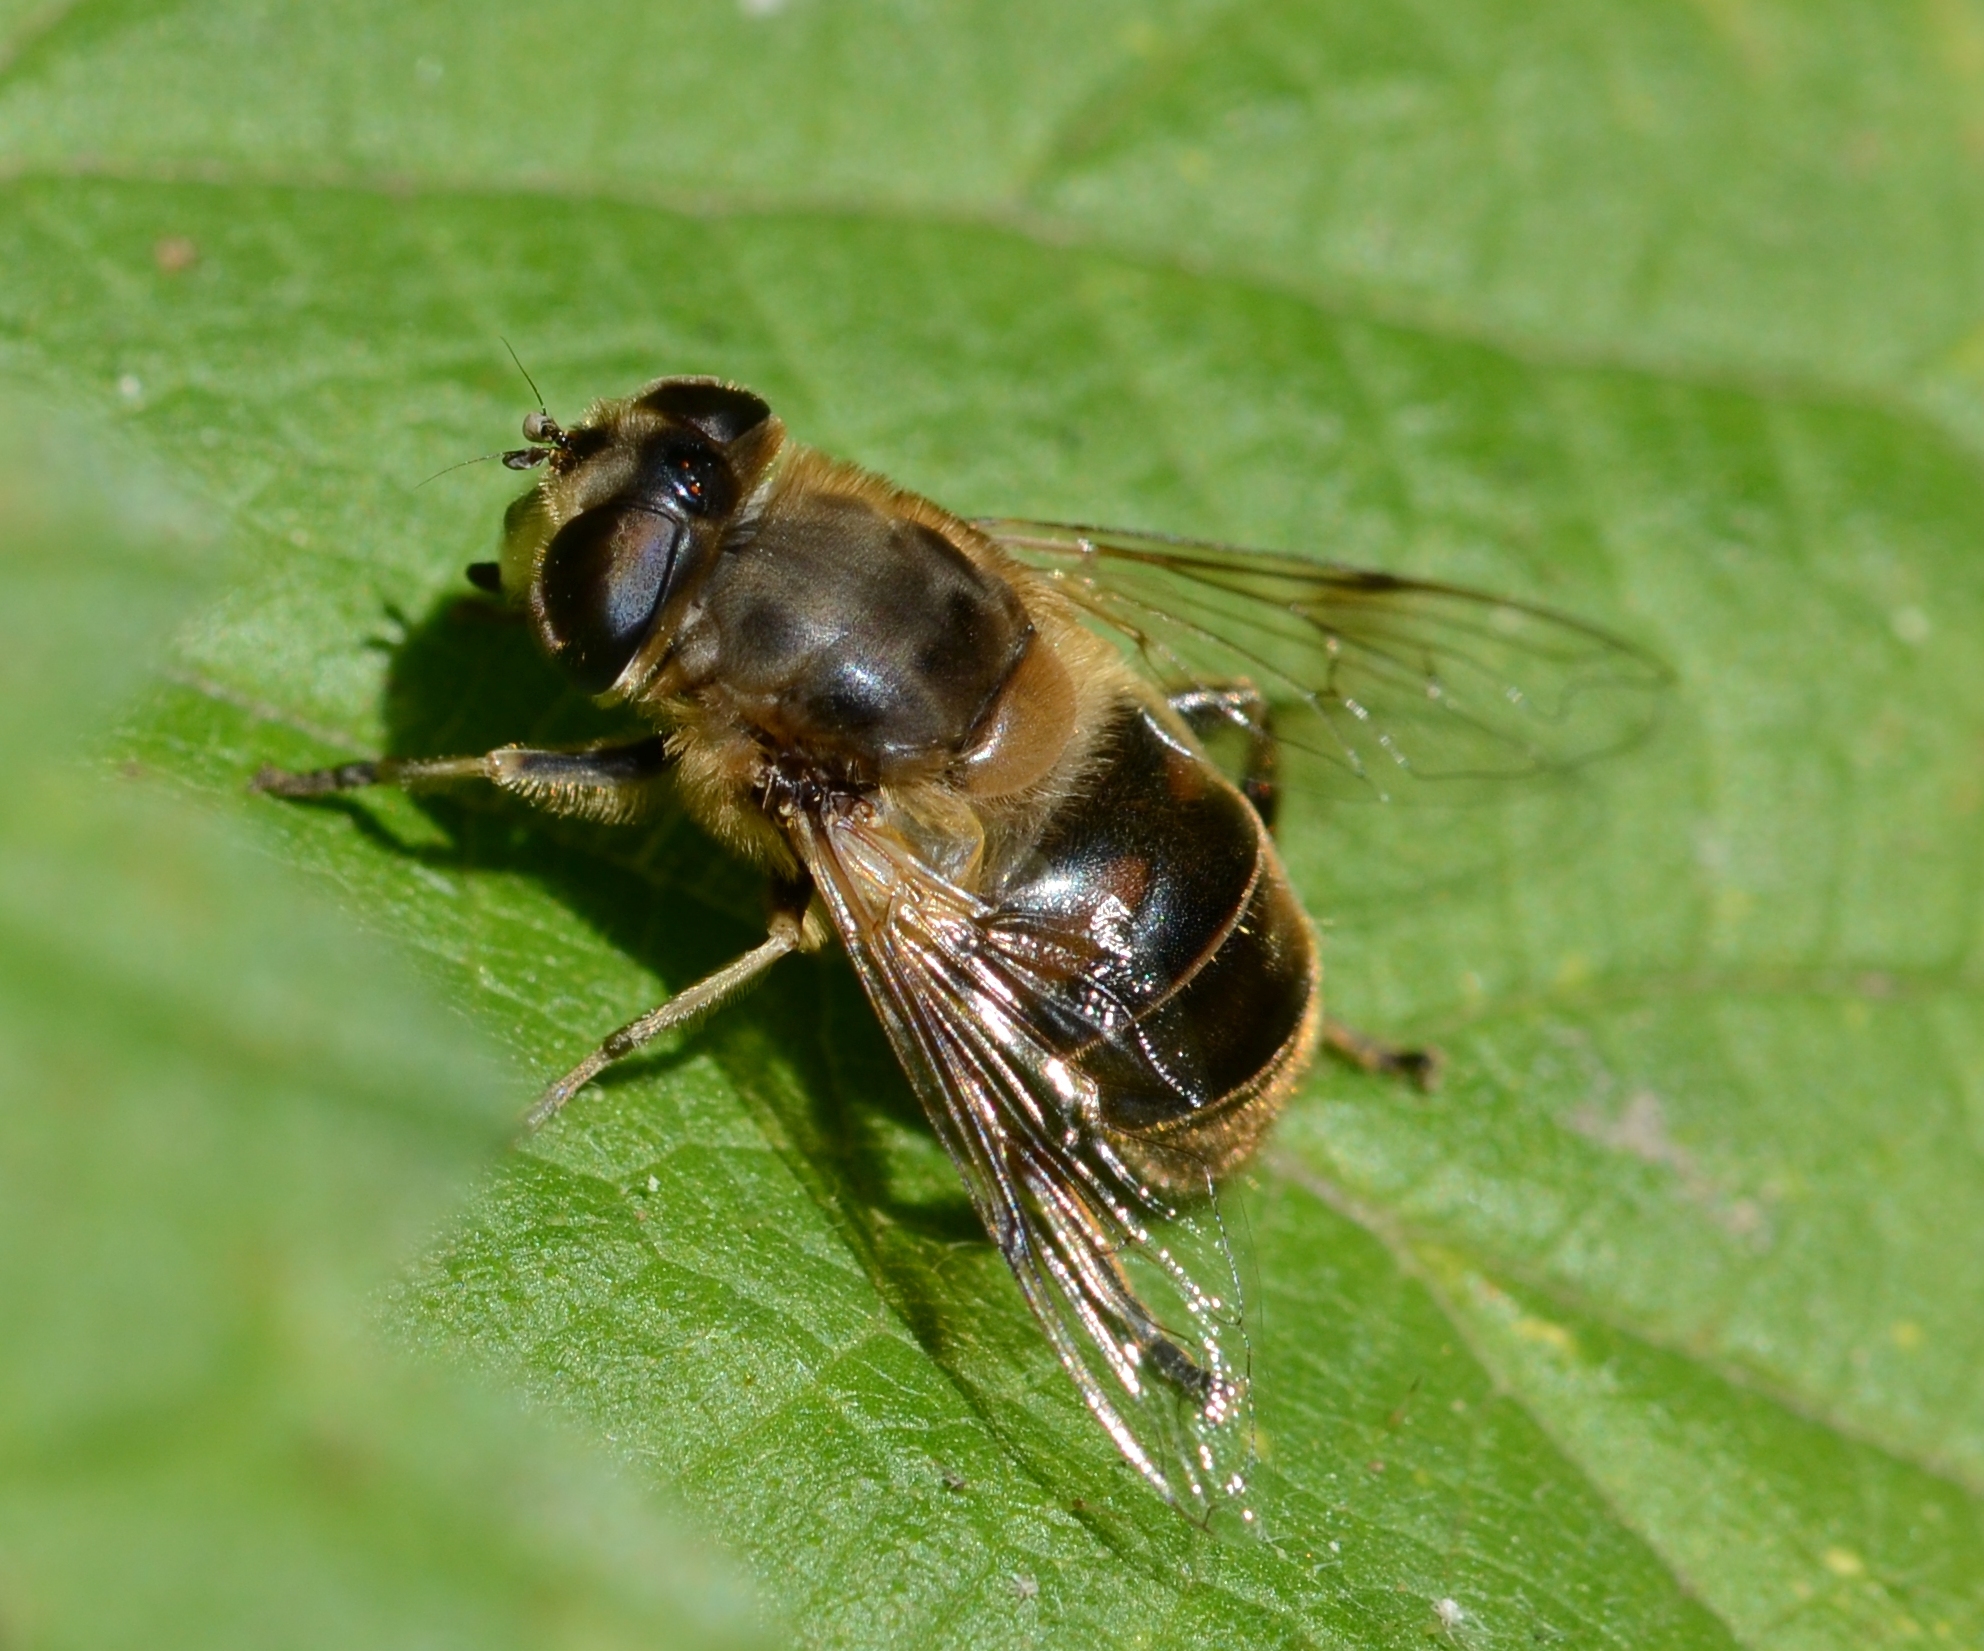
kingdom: Animalia
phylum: Arthropoda
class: Insecta
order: Diptera
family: Syrphidae
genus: Eristalis
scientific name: Eristalis tenax
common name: Drone fly
